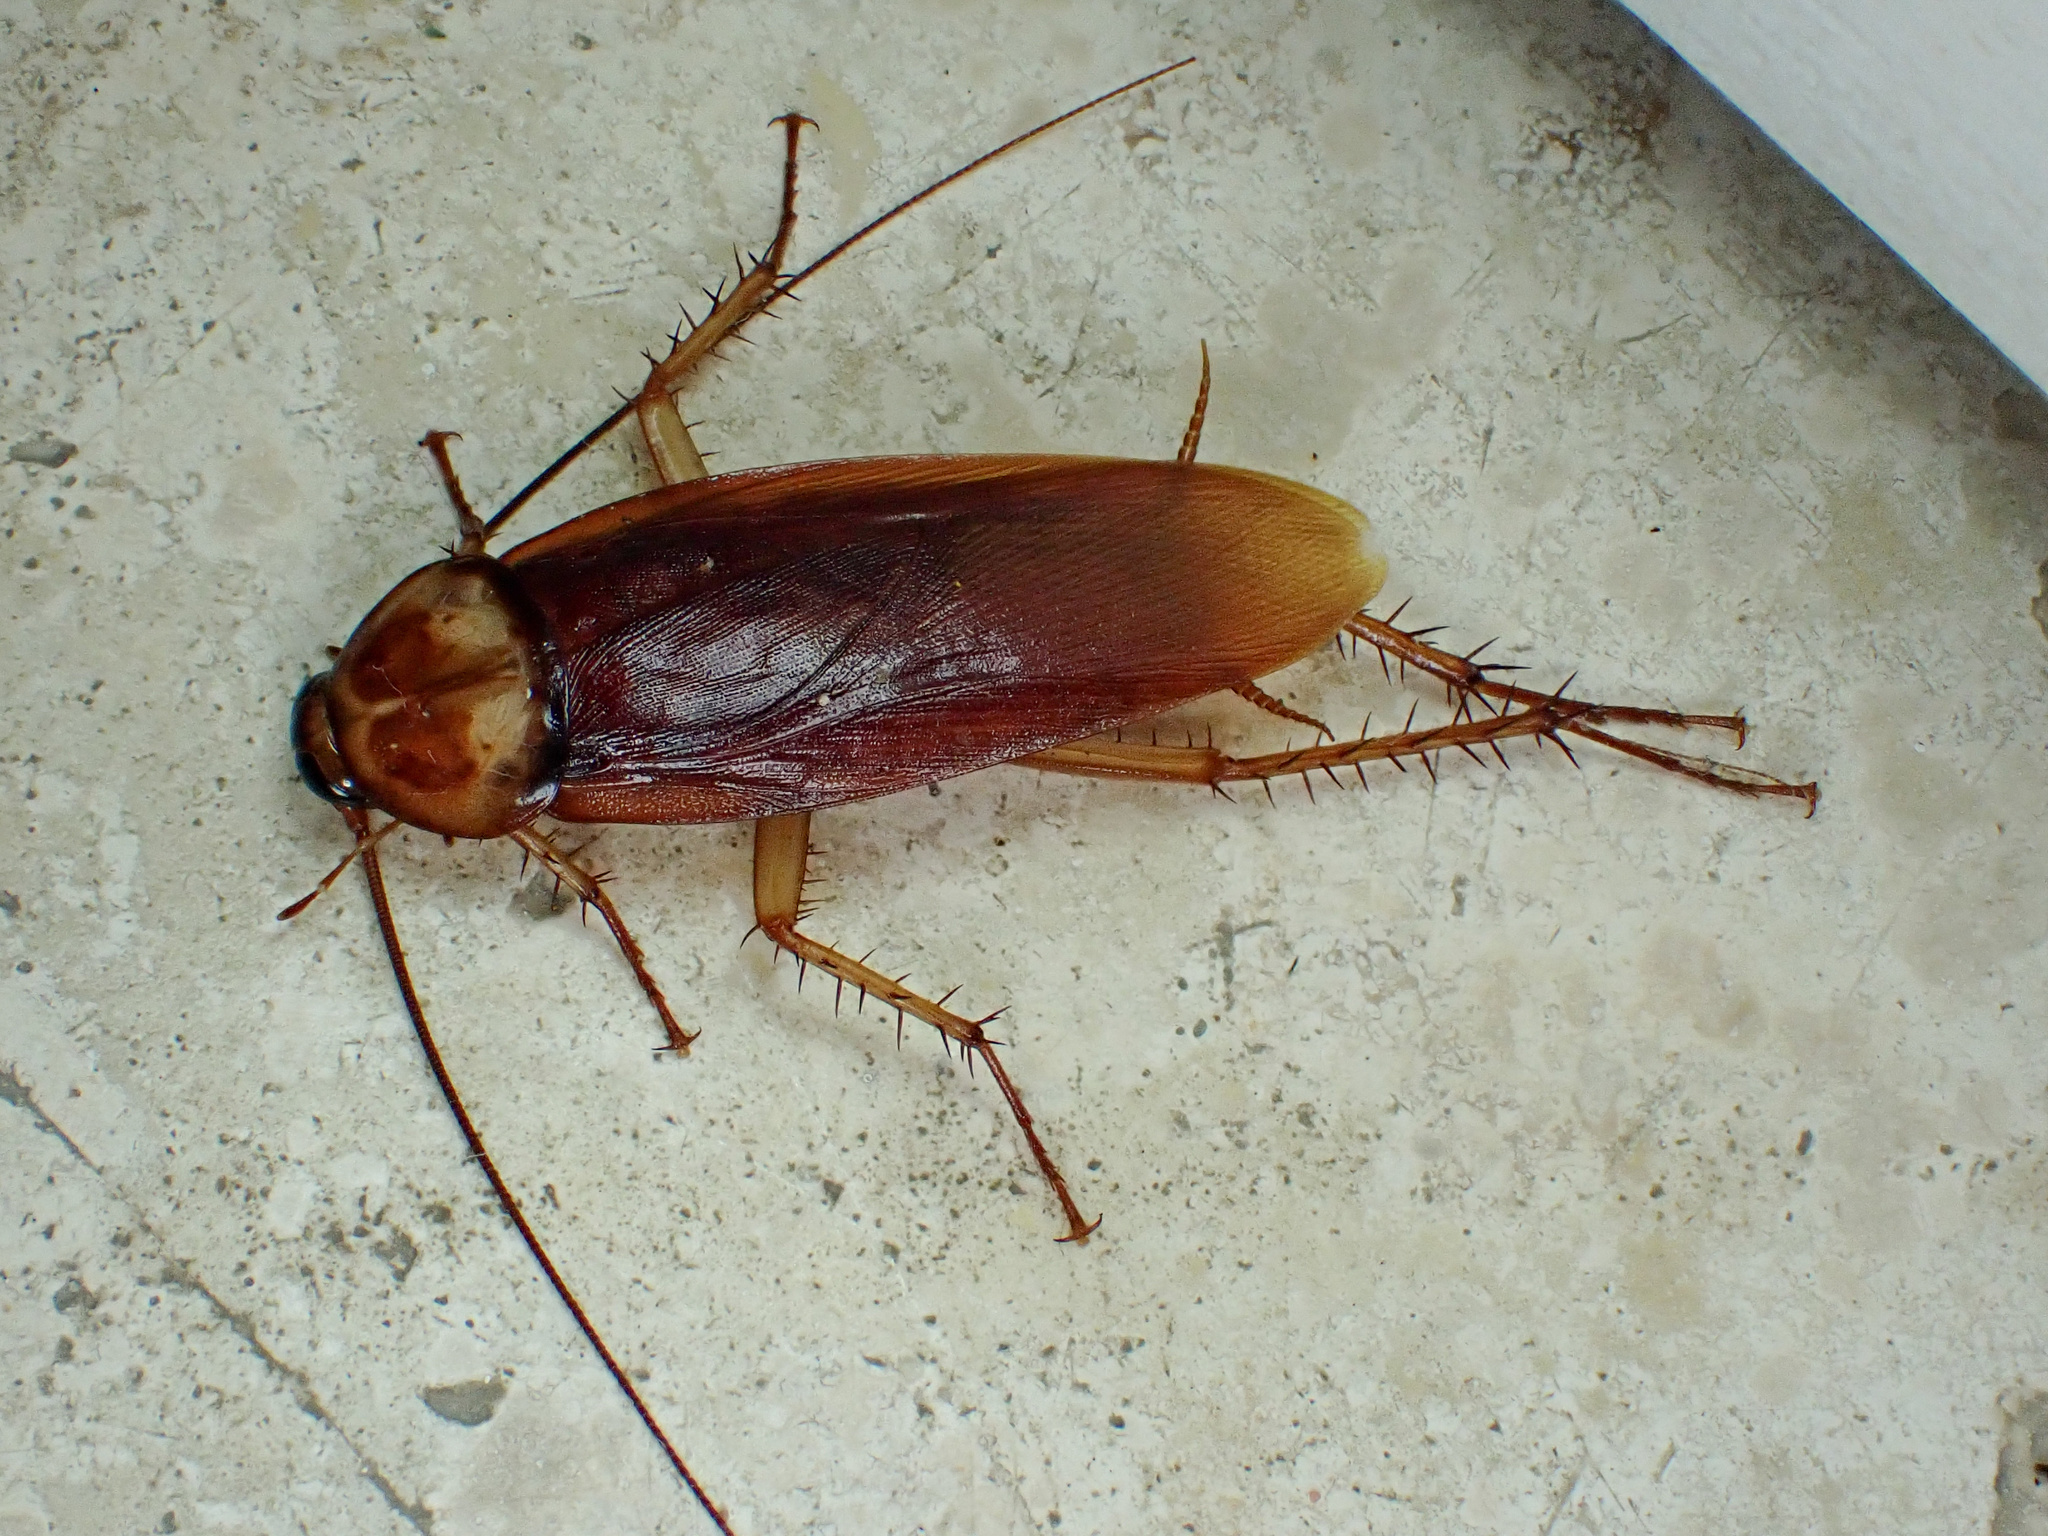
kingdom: Animalia
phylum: Arthropoda
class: Insecta
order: Blattodea
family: Blattidae
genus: Periplaneta
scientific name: Periplaneta americana
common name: American cockroach
